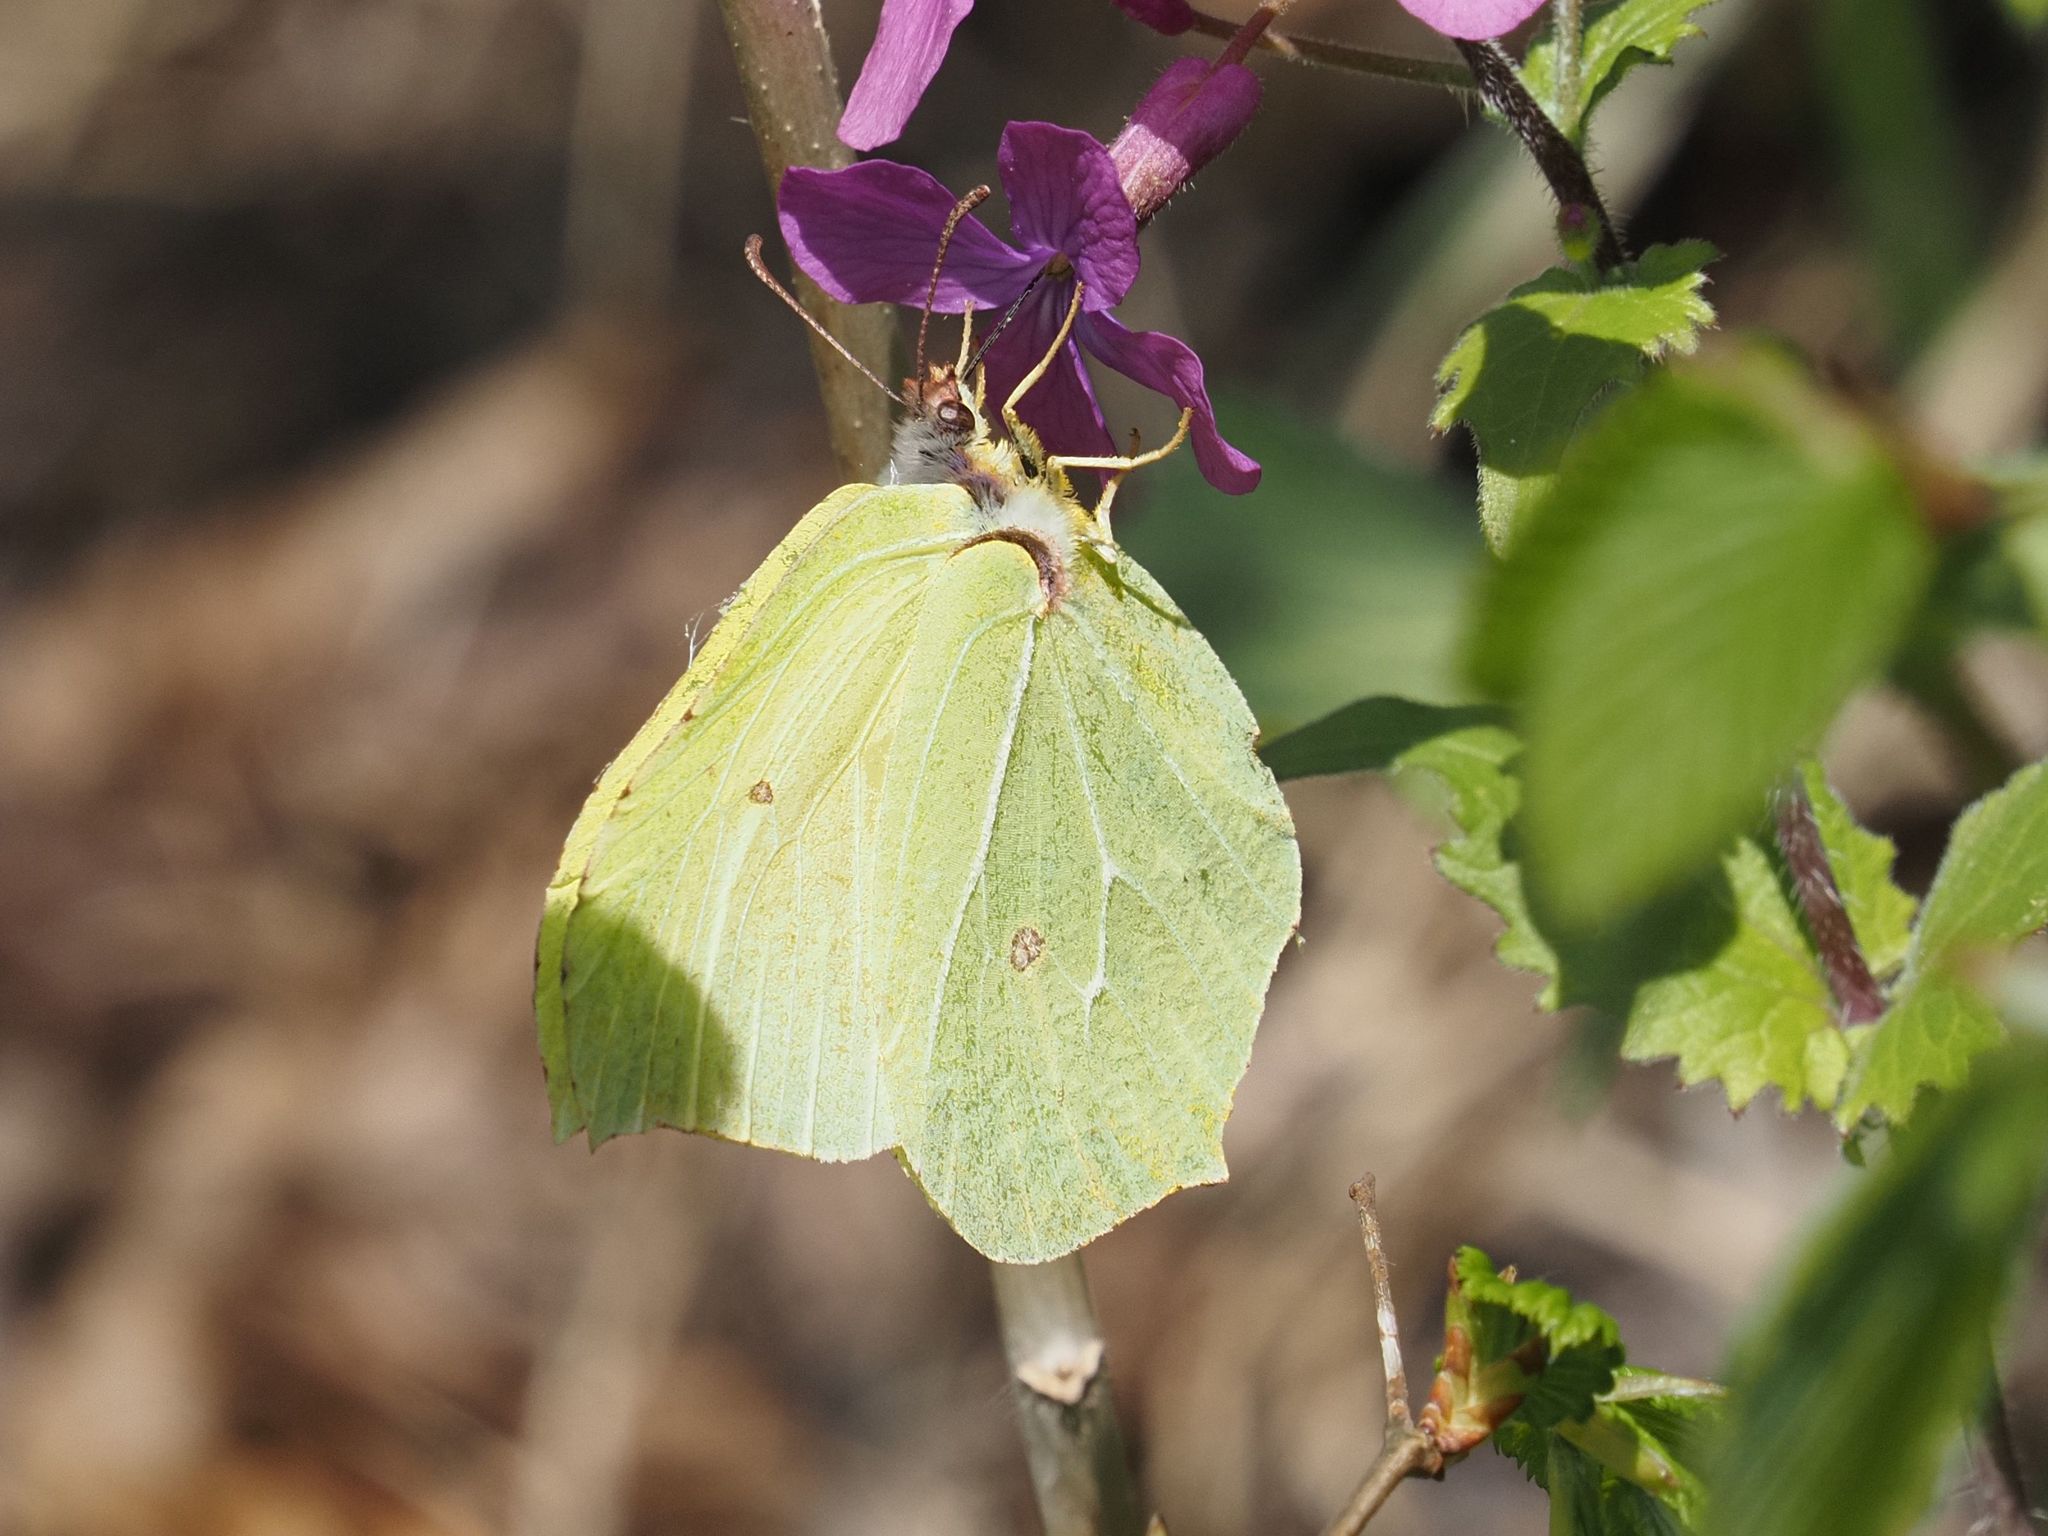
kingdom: Animalia
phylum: Arthropoda
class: Insecta
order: Lepidoptera
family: Pieridae
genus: Gonepteryx
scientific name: Gonepteryx rhamni
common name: Brimstone
